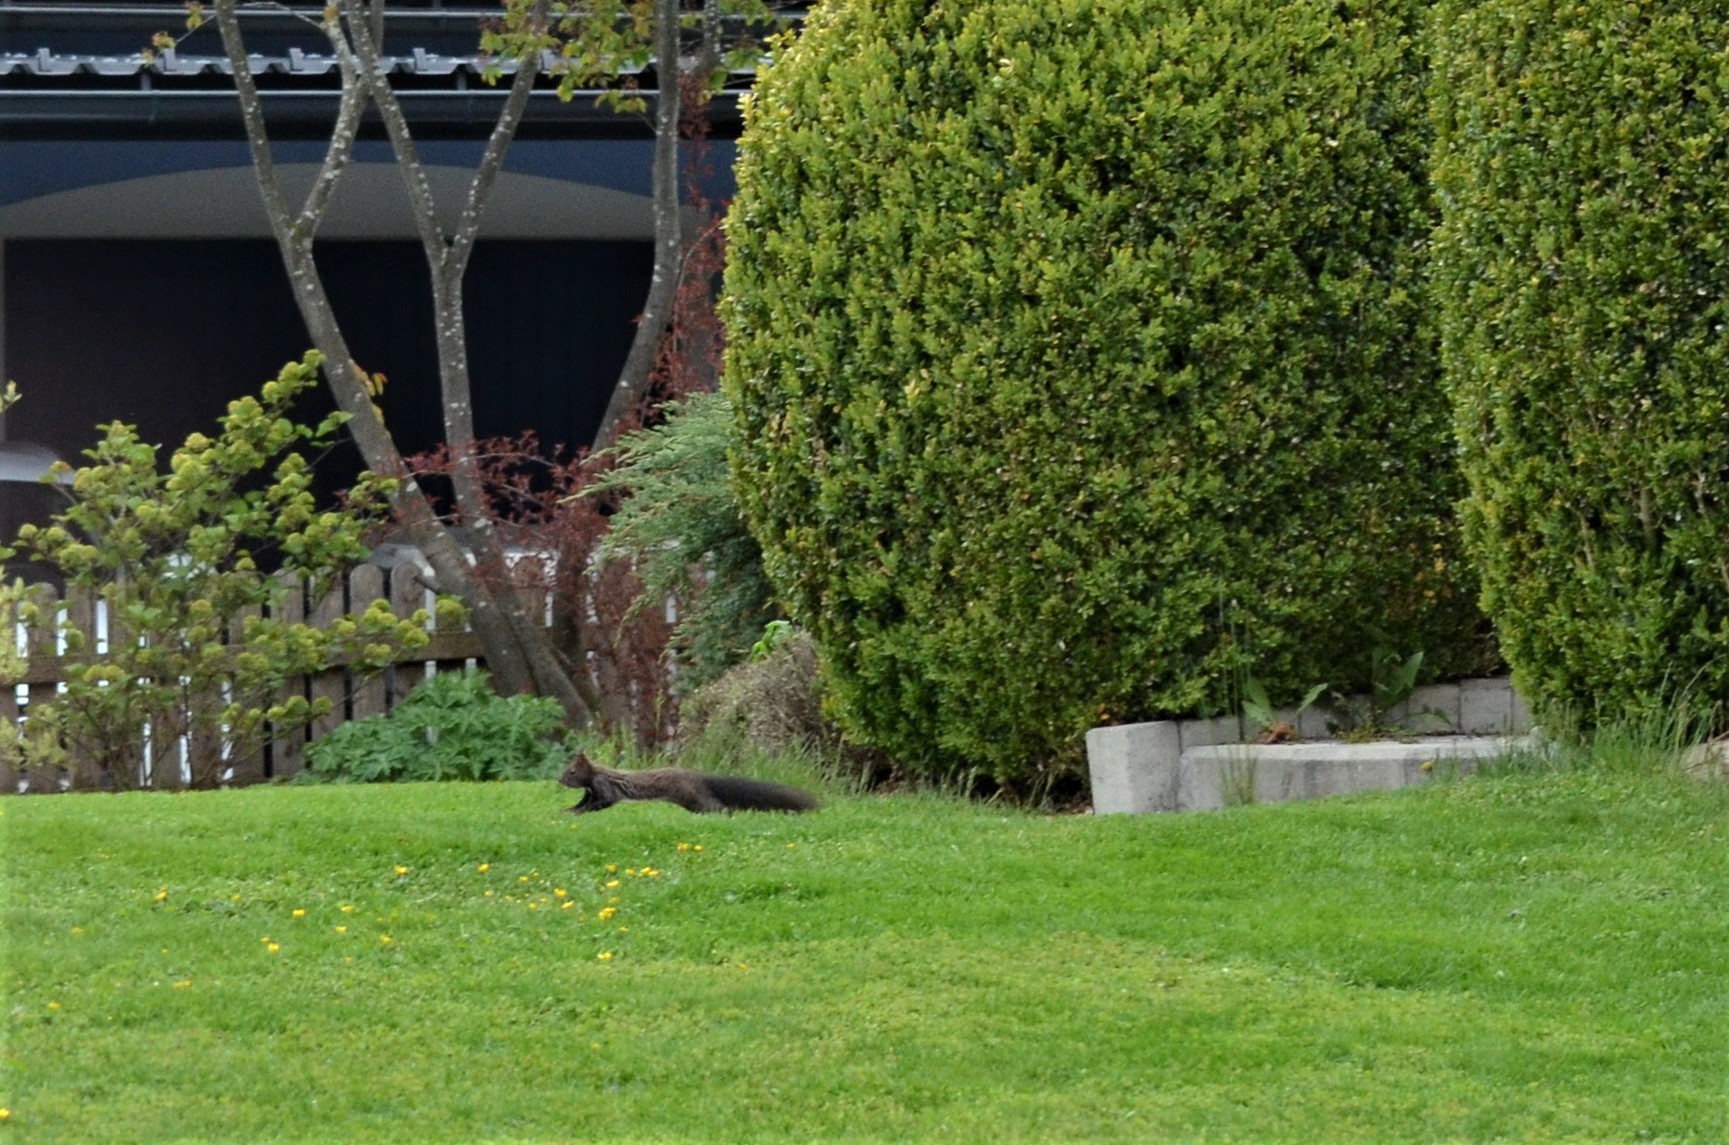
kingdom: Animalia
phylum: Chordata
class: Mammalia
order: Rodentia
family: Sciuridae
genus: Sciurus
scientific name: Sciurus vulgaris
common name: Eurasian red squirrel
